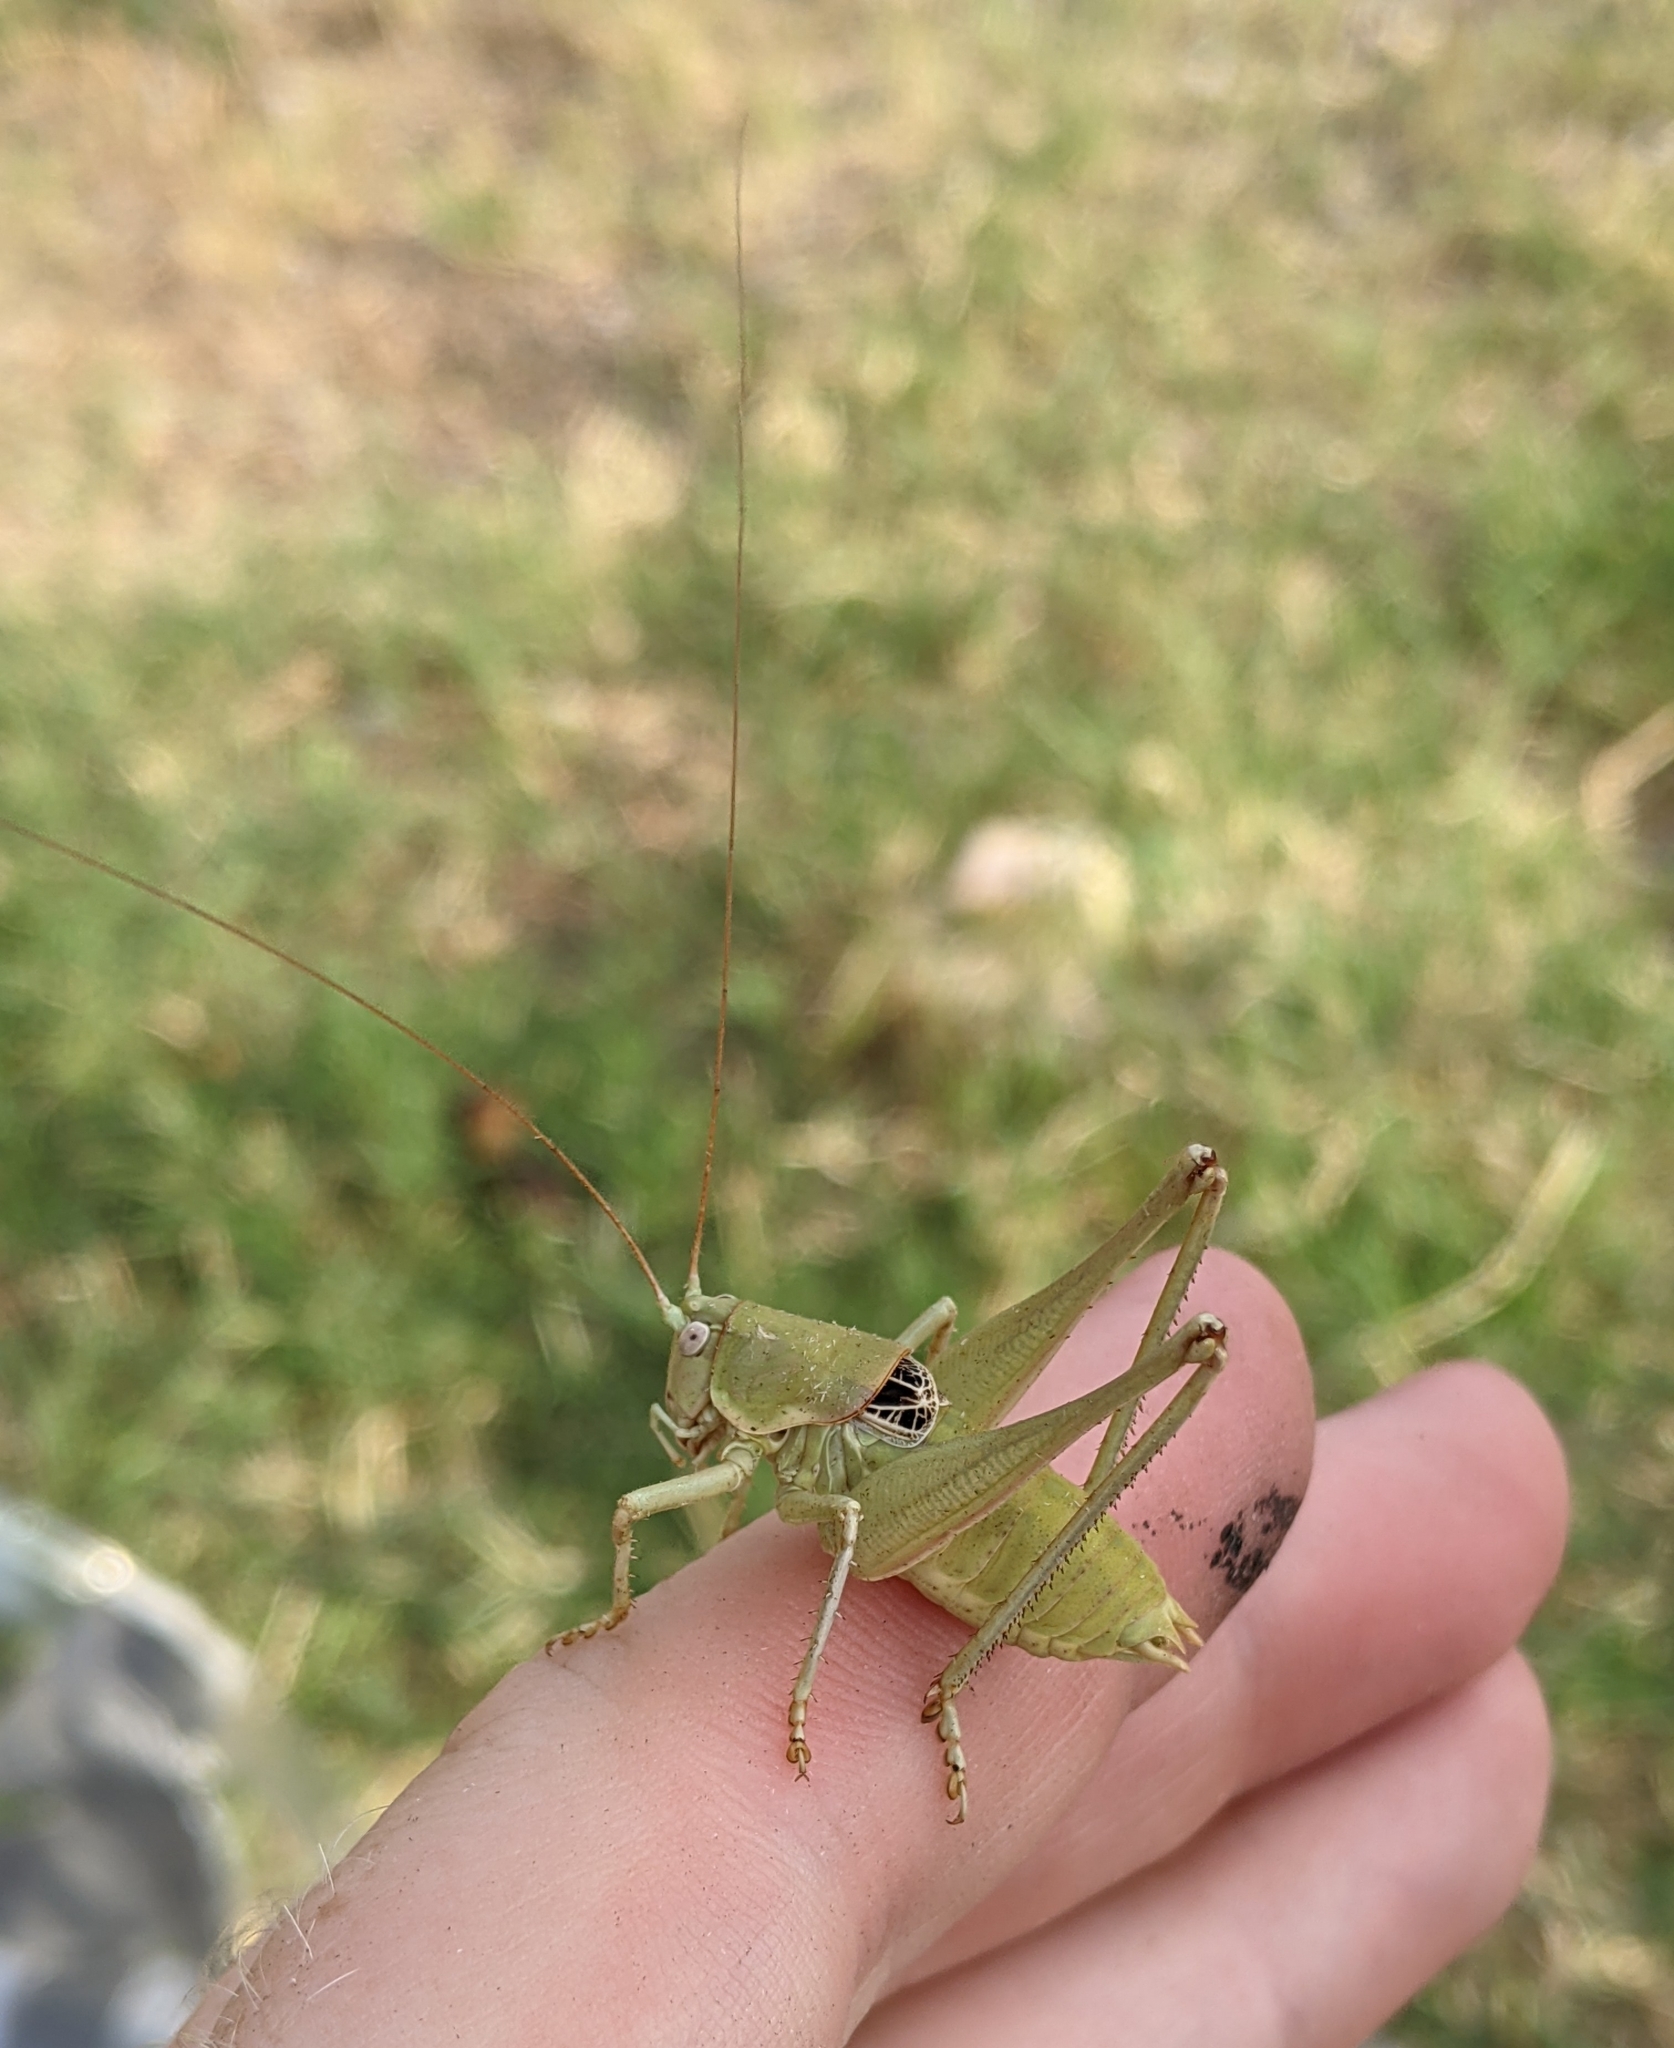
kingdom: Animalia
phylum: Arthropoda
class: Insecta
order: Orthoptera
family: Tettigoniidae
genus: Eremopedes
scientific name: Eremopedes covilleae
